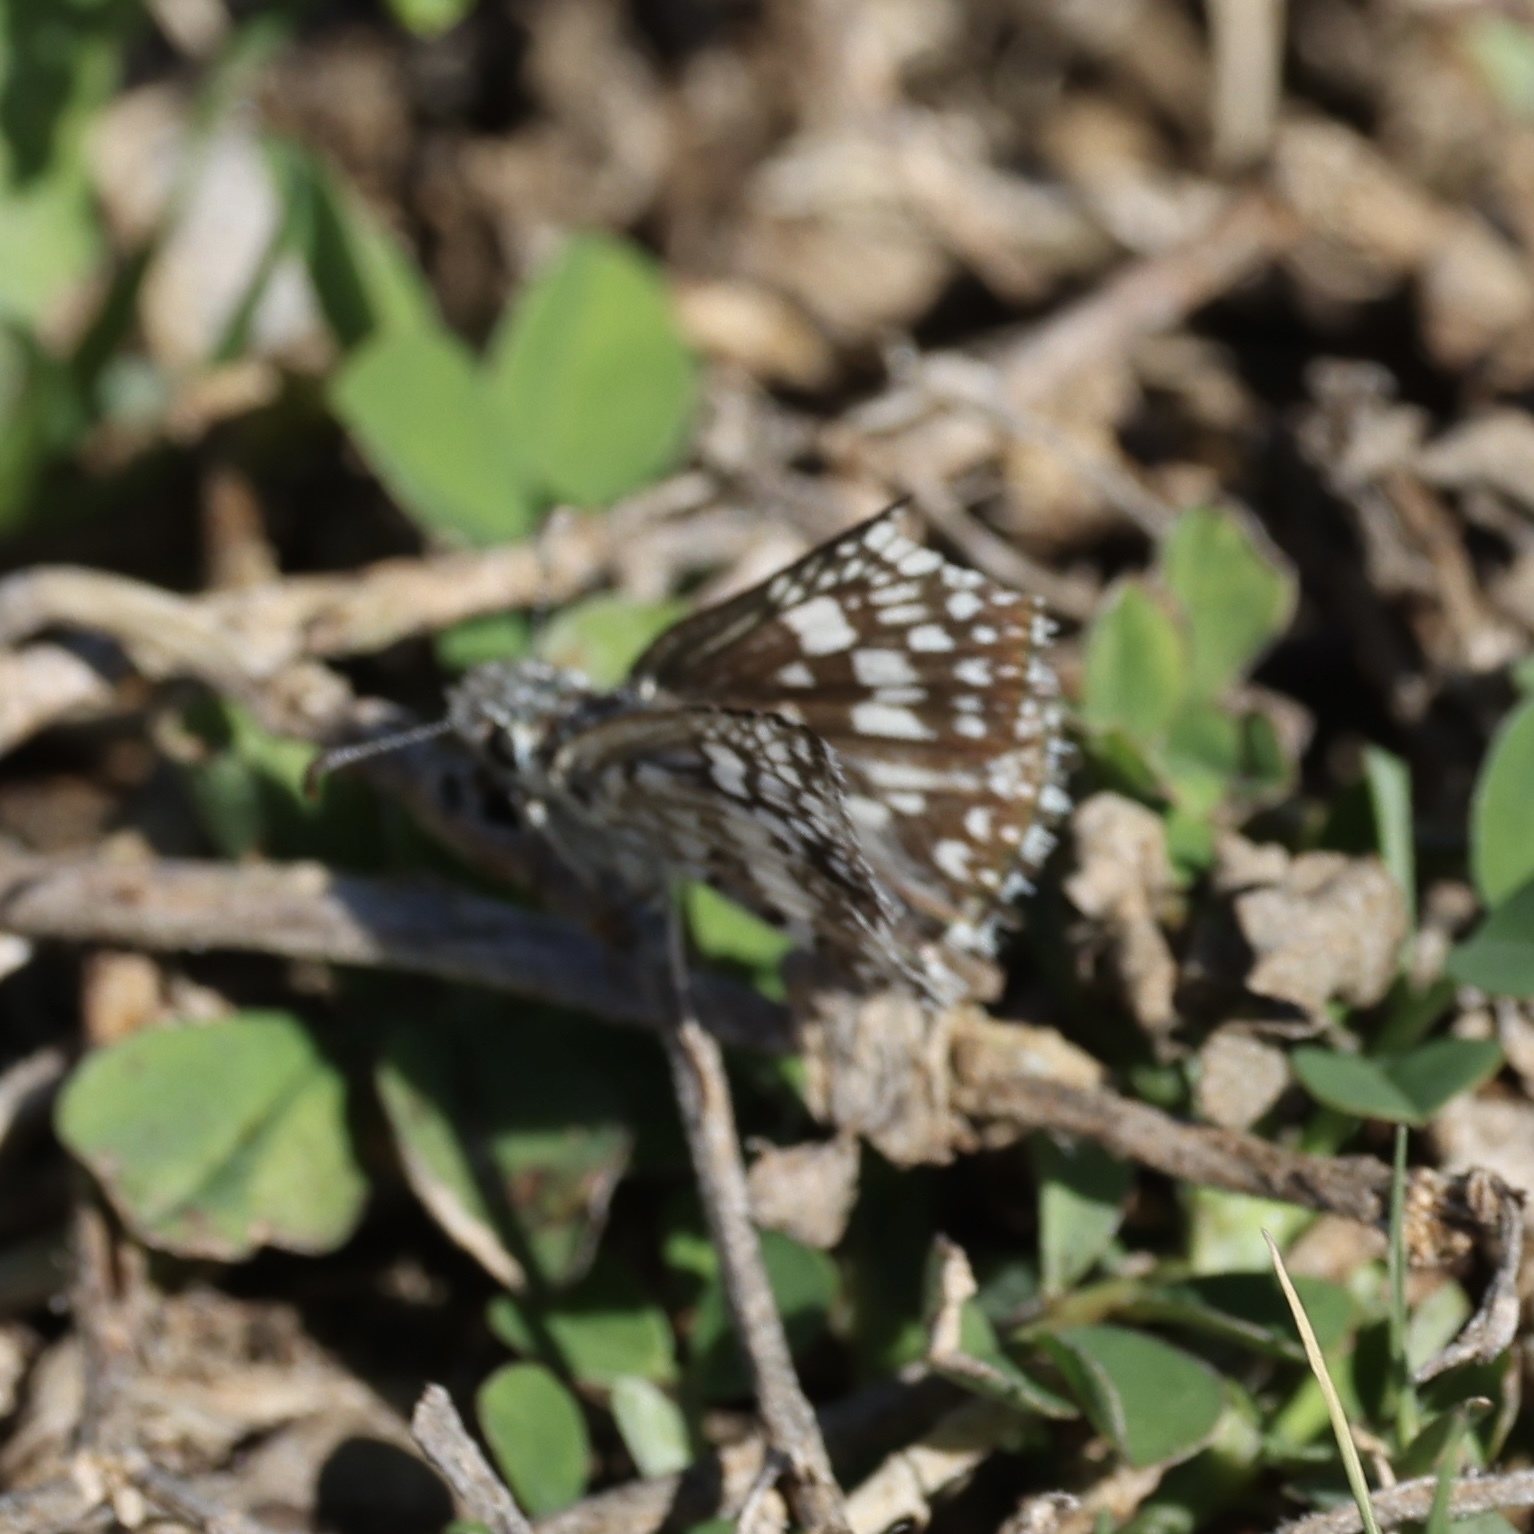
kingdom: Animalia
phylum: Arthropoda
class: Insecta
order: Lepidoptera
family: Hesperiidae
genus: Burnsius
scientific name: Burnsius albezens
